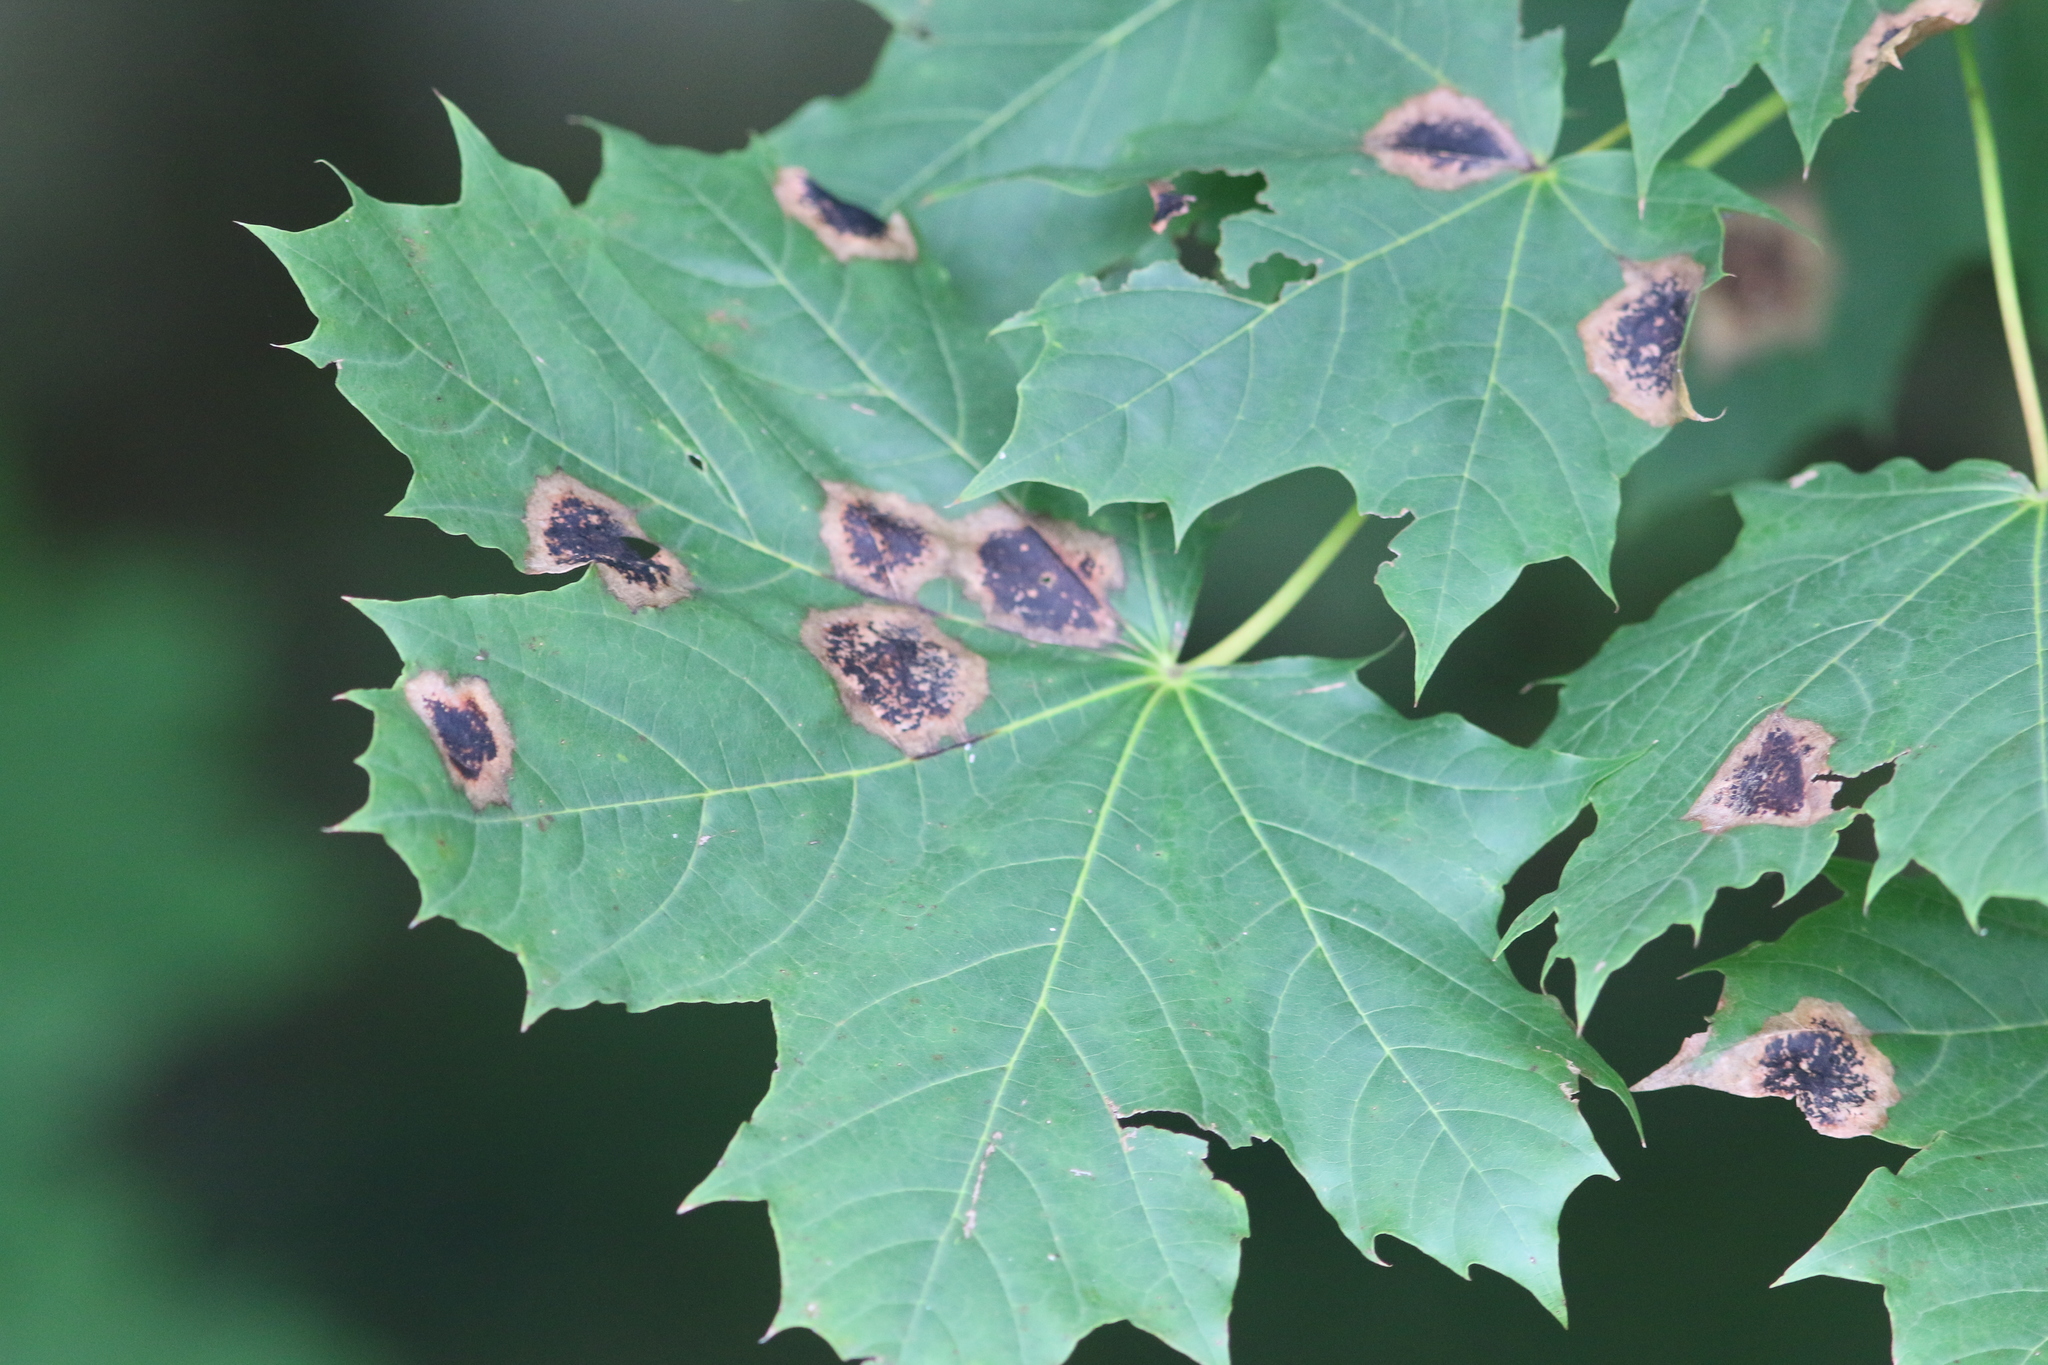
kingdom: Fungi
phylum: Ascomycota
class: Leotiomycetes
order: Rhytismatales
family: Rhytismataceae
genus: Rhytisma
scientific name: Rhytisma acerinum
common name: European tar spot
